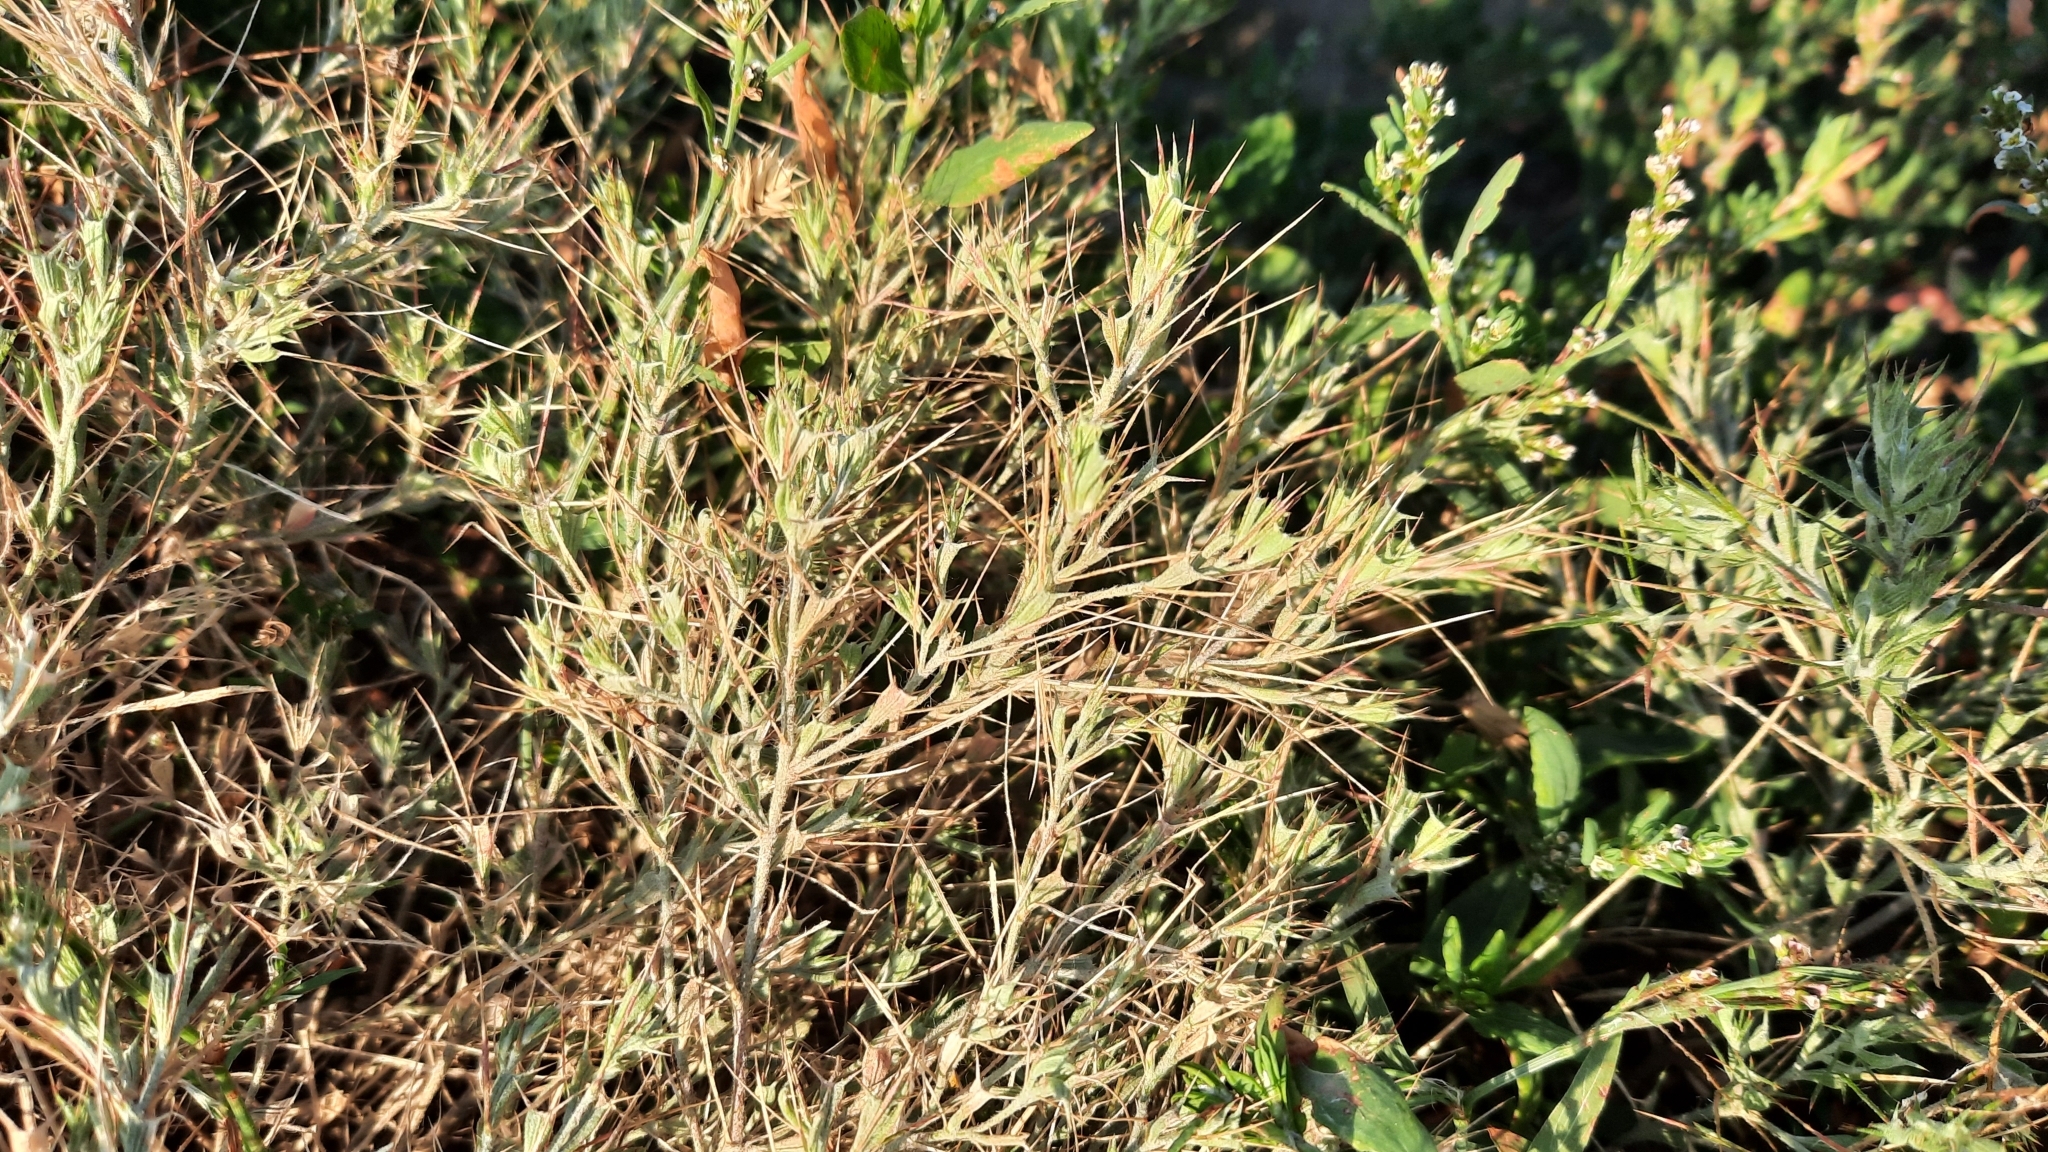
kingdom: Plantae
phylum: Tracheophyta
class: Magnoliopsida
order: Caryophyllales
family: Amaranthaceae
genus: Ceratocarpus
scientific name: Ceratocarpus arenarius
